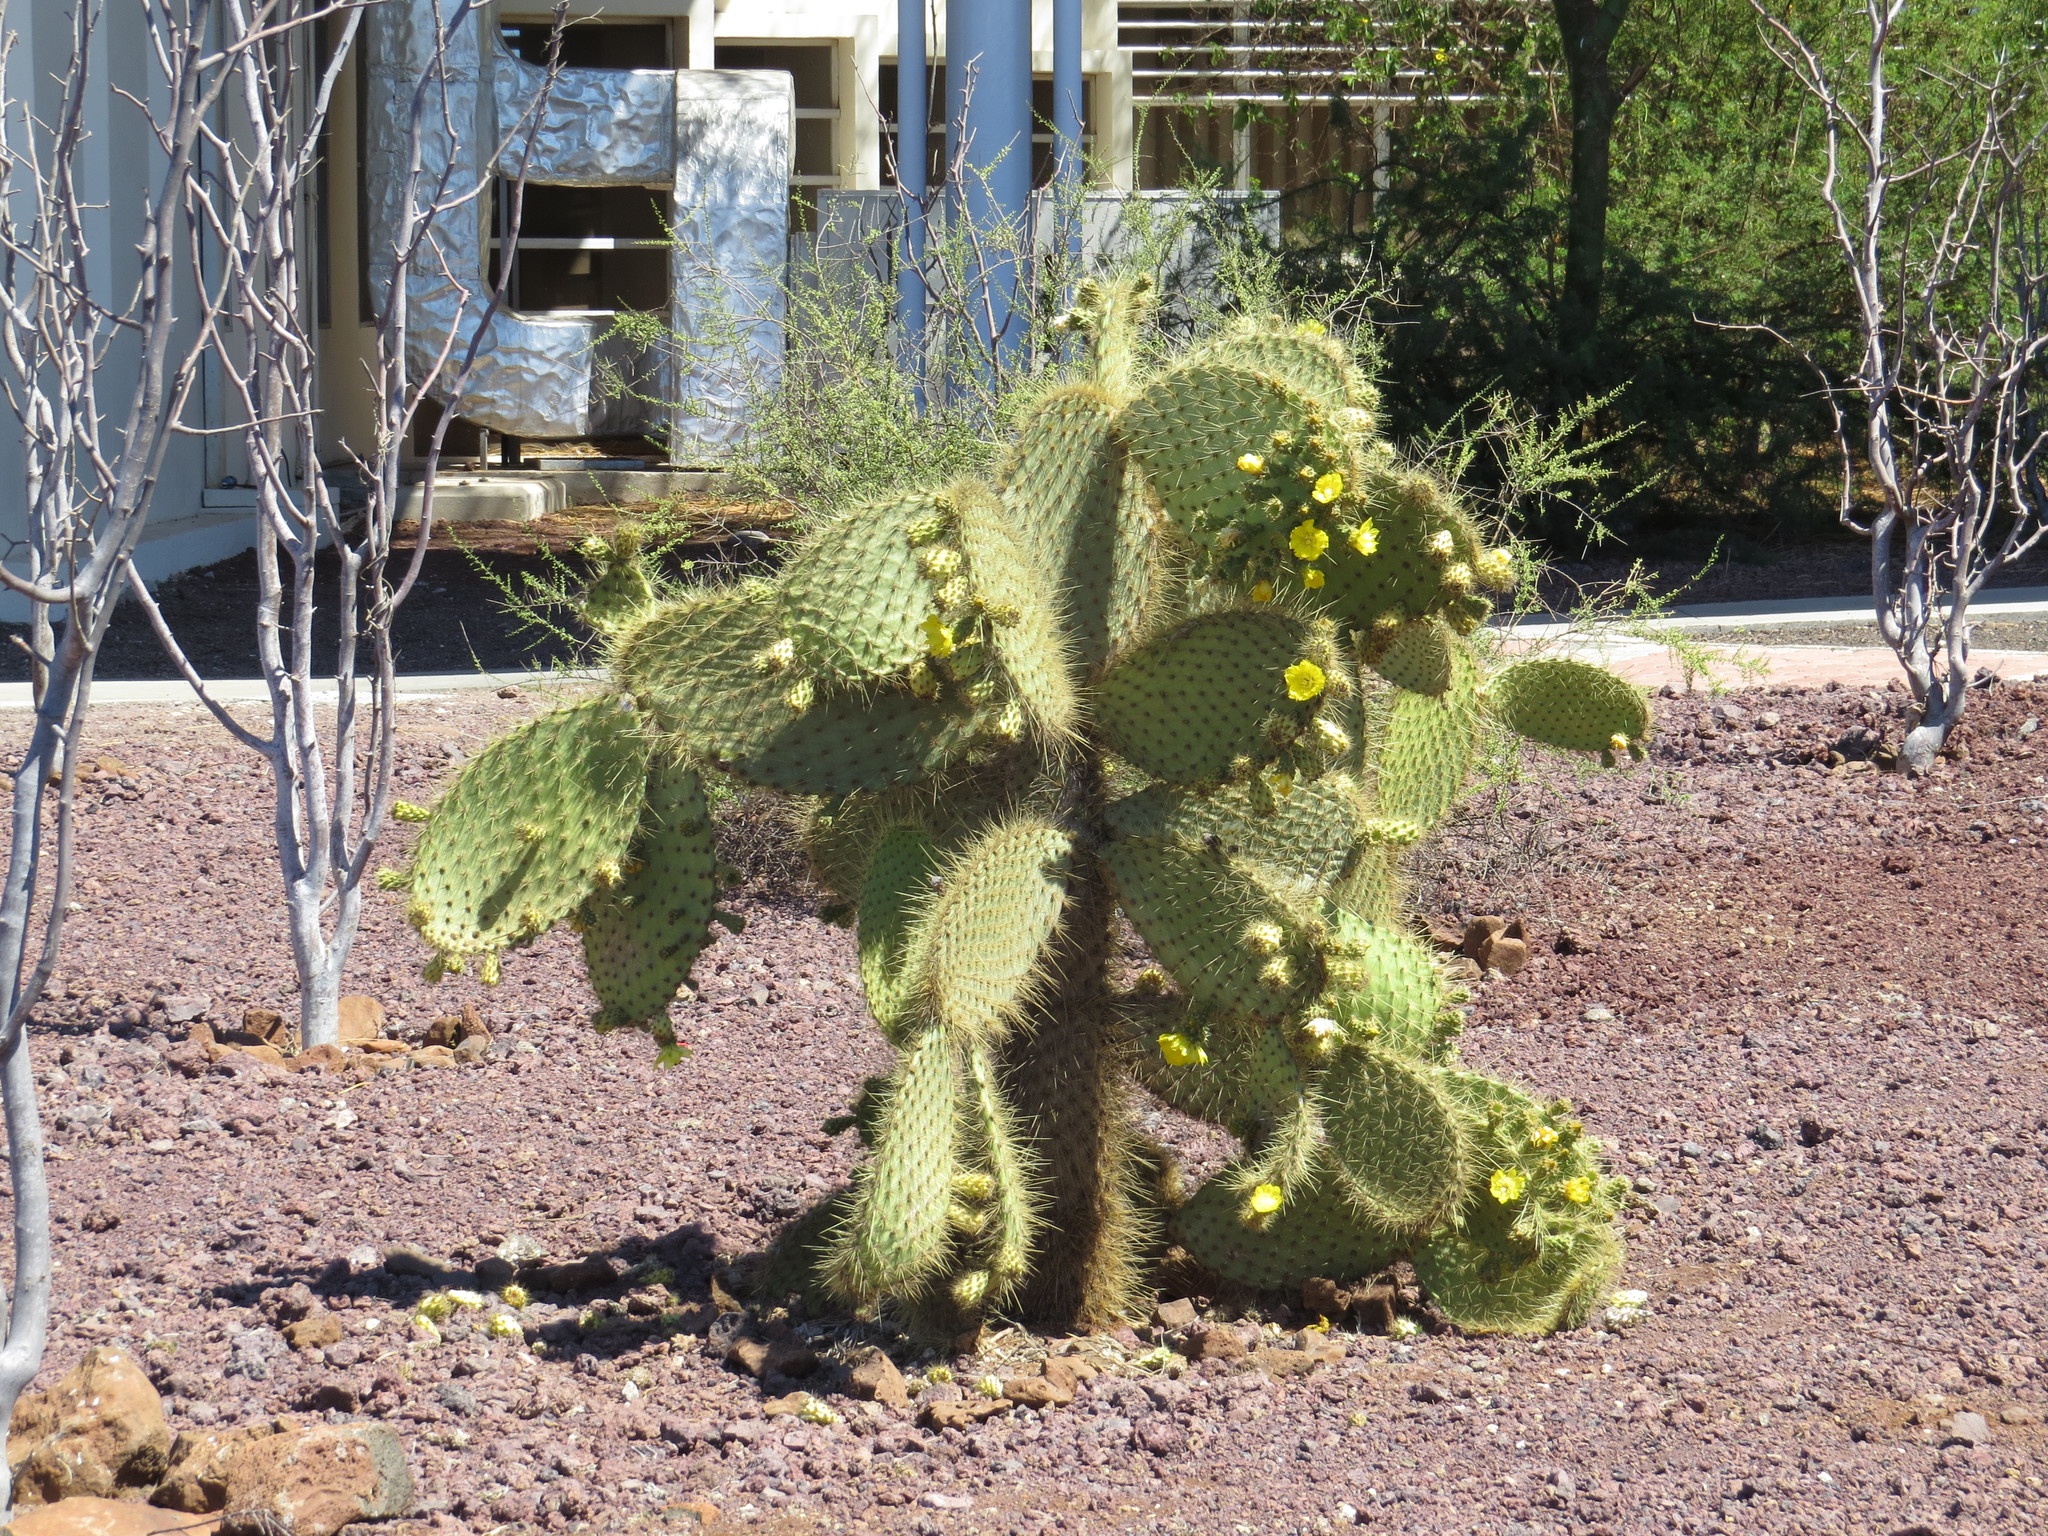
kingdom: Plantae
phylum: Tracheophyta
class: Magnoliopsida
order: Caryophyllales
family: Cactaceae
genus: Opuntia
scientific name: Opuntia galapageia
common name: Galápagos prickly pear
